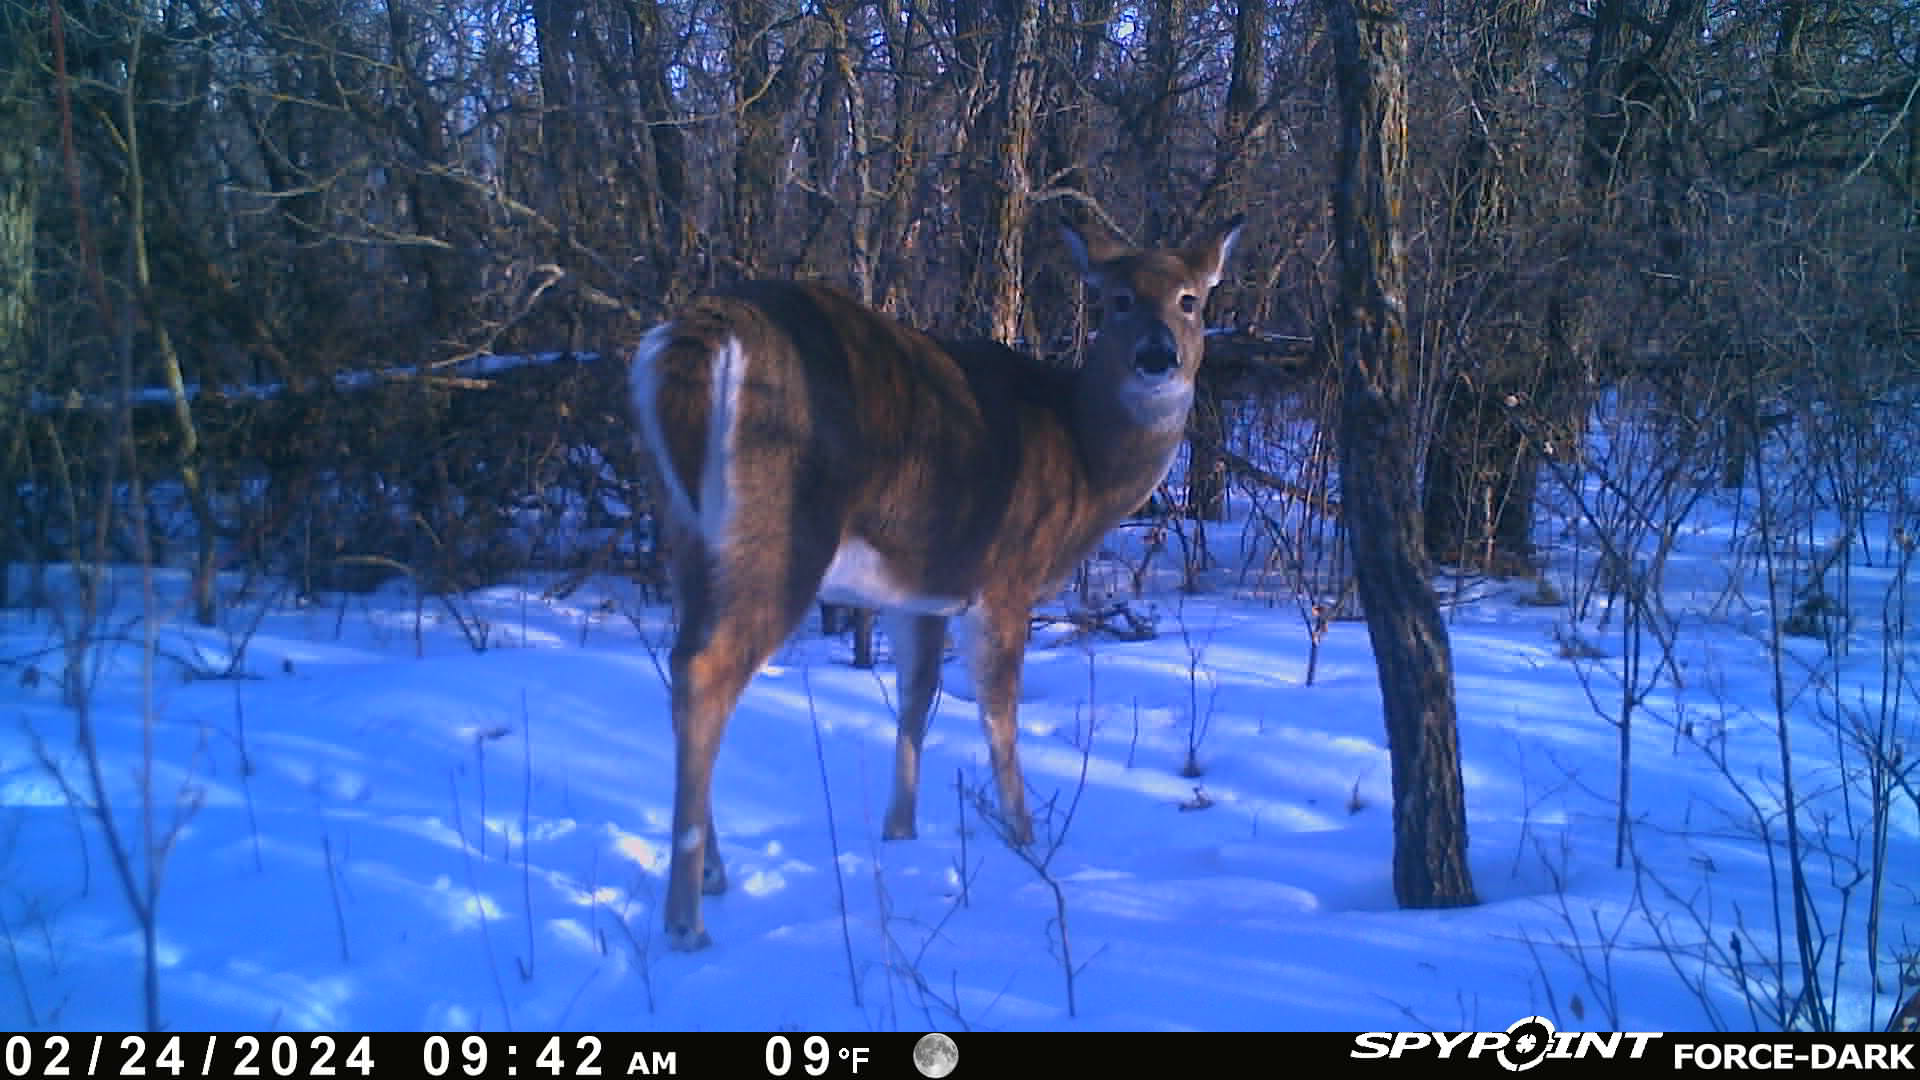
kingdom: Animalia
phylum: Chordata
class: Mammalia
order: Artiodactyla
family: Cervidae
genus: Odocoileus
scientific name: Odocoileus virginianus
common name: White-tailed deer
